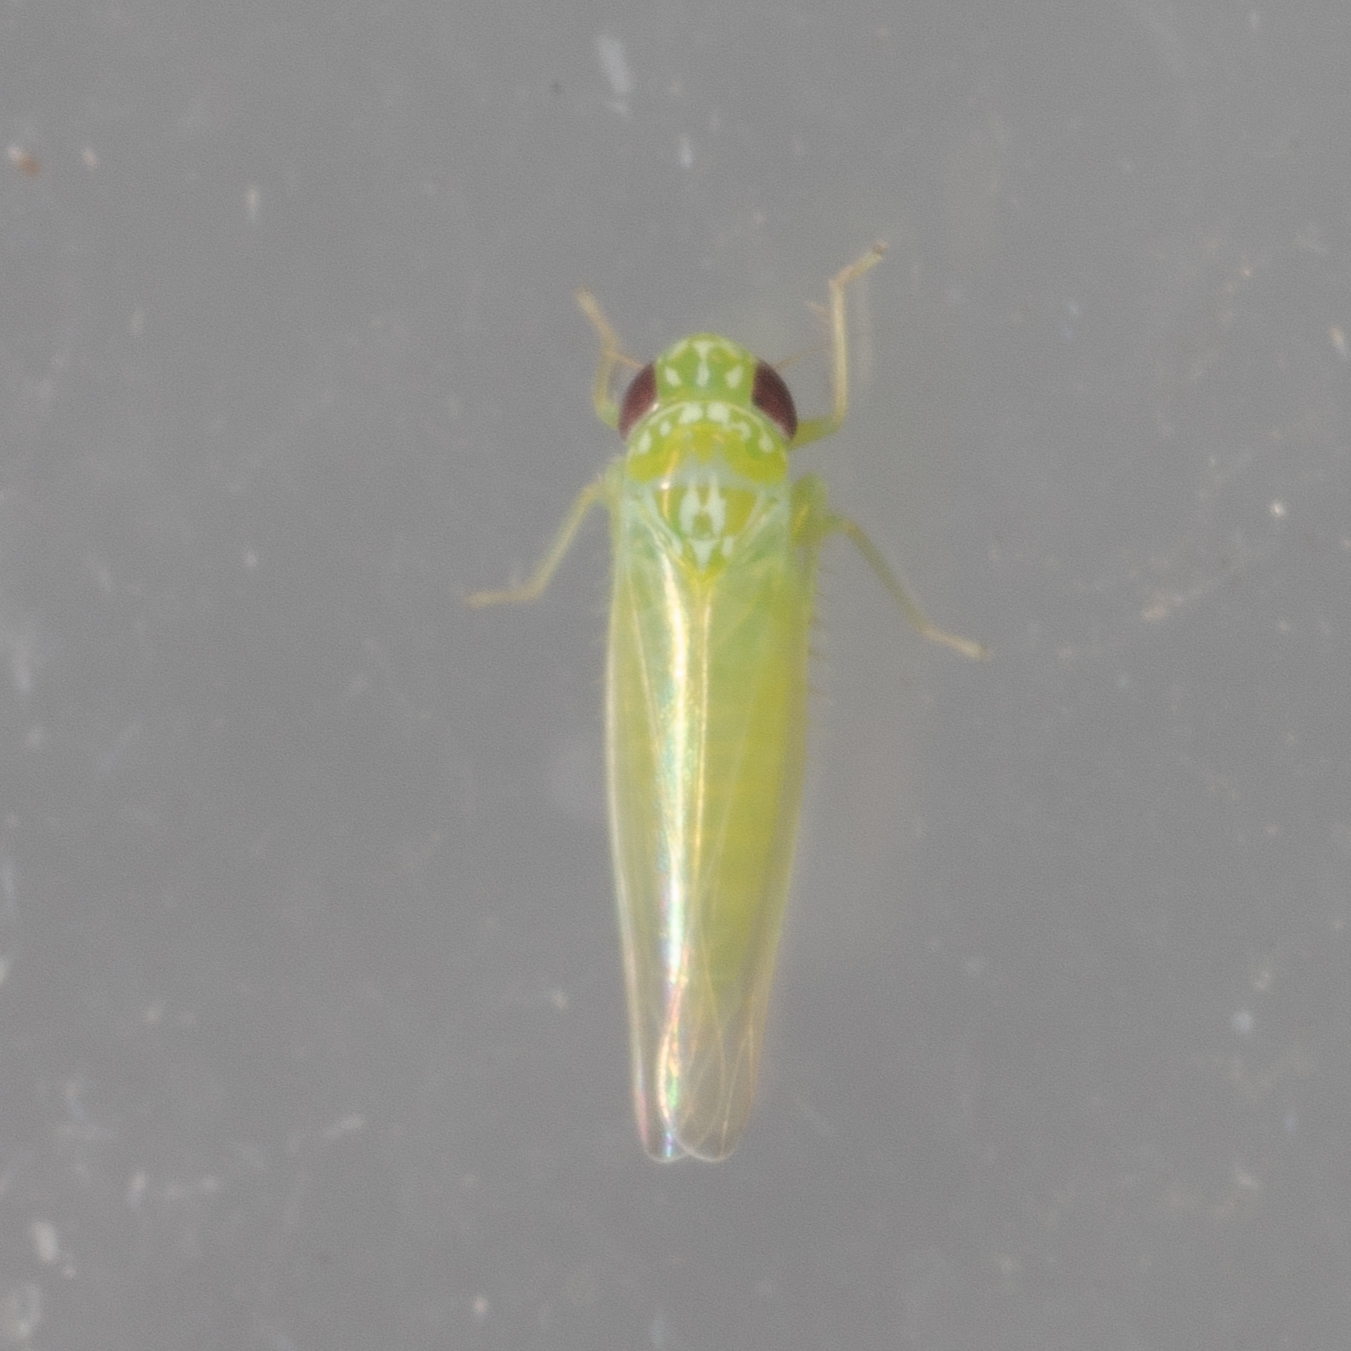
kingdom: Animalia
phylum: Arthropoda
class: Insecta
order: Hemiptera
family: Cicadellidae
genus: Empoasca
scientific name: Empoasca fabae
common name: Potato leafhopper
